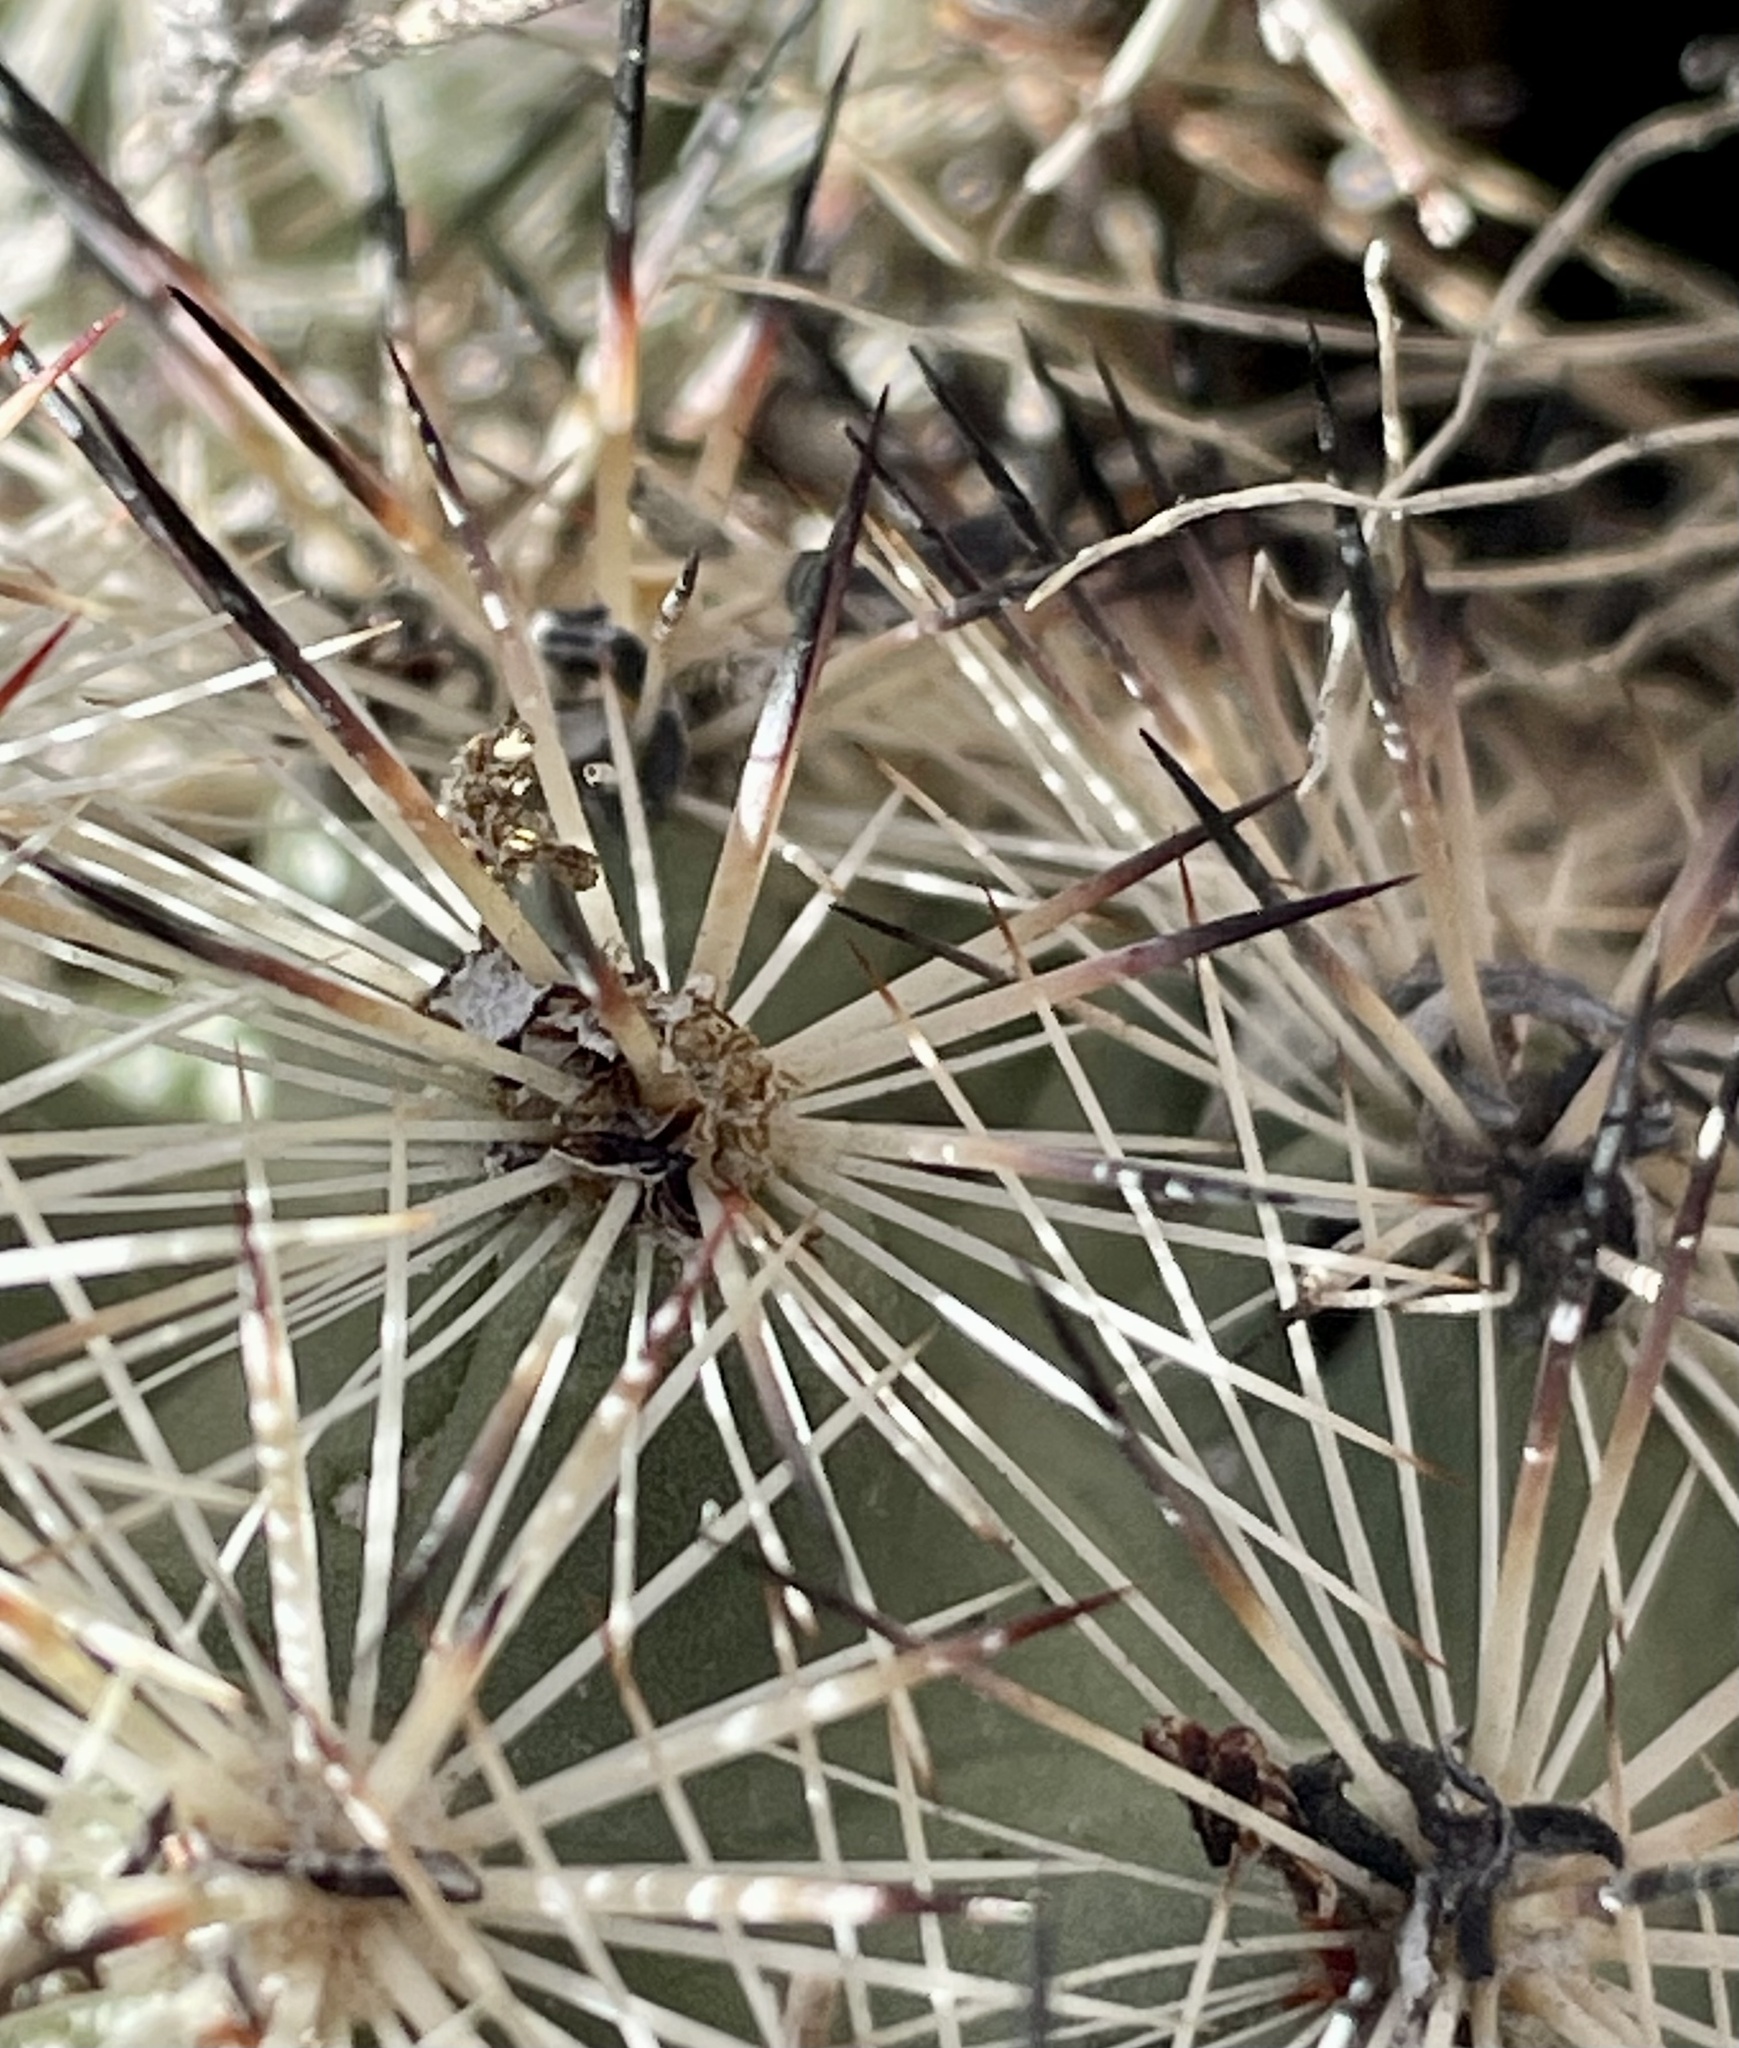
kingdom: Plantae
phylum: Tracheophyta
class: Magnoliopsida
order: Caryophyllales
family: Cactaceae
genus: Pelecyphora
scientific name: Pelecyphora alversonii
